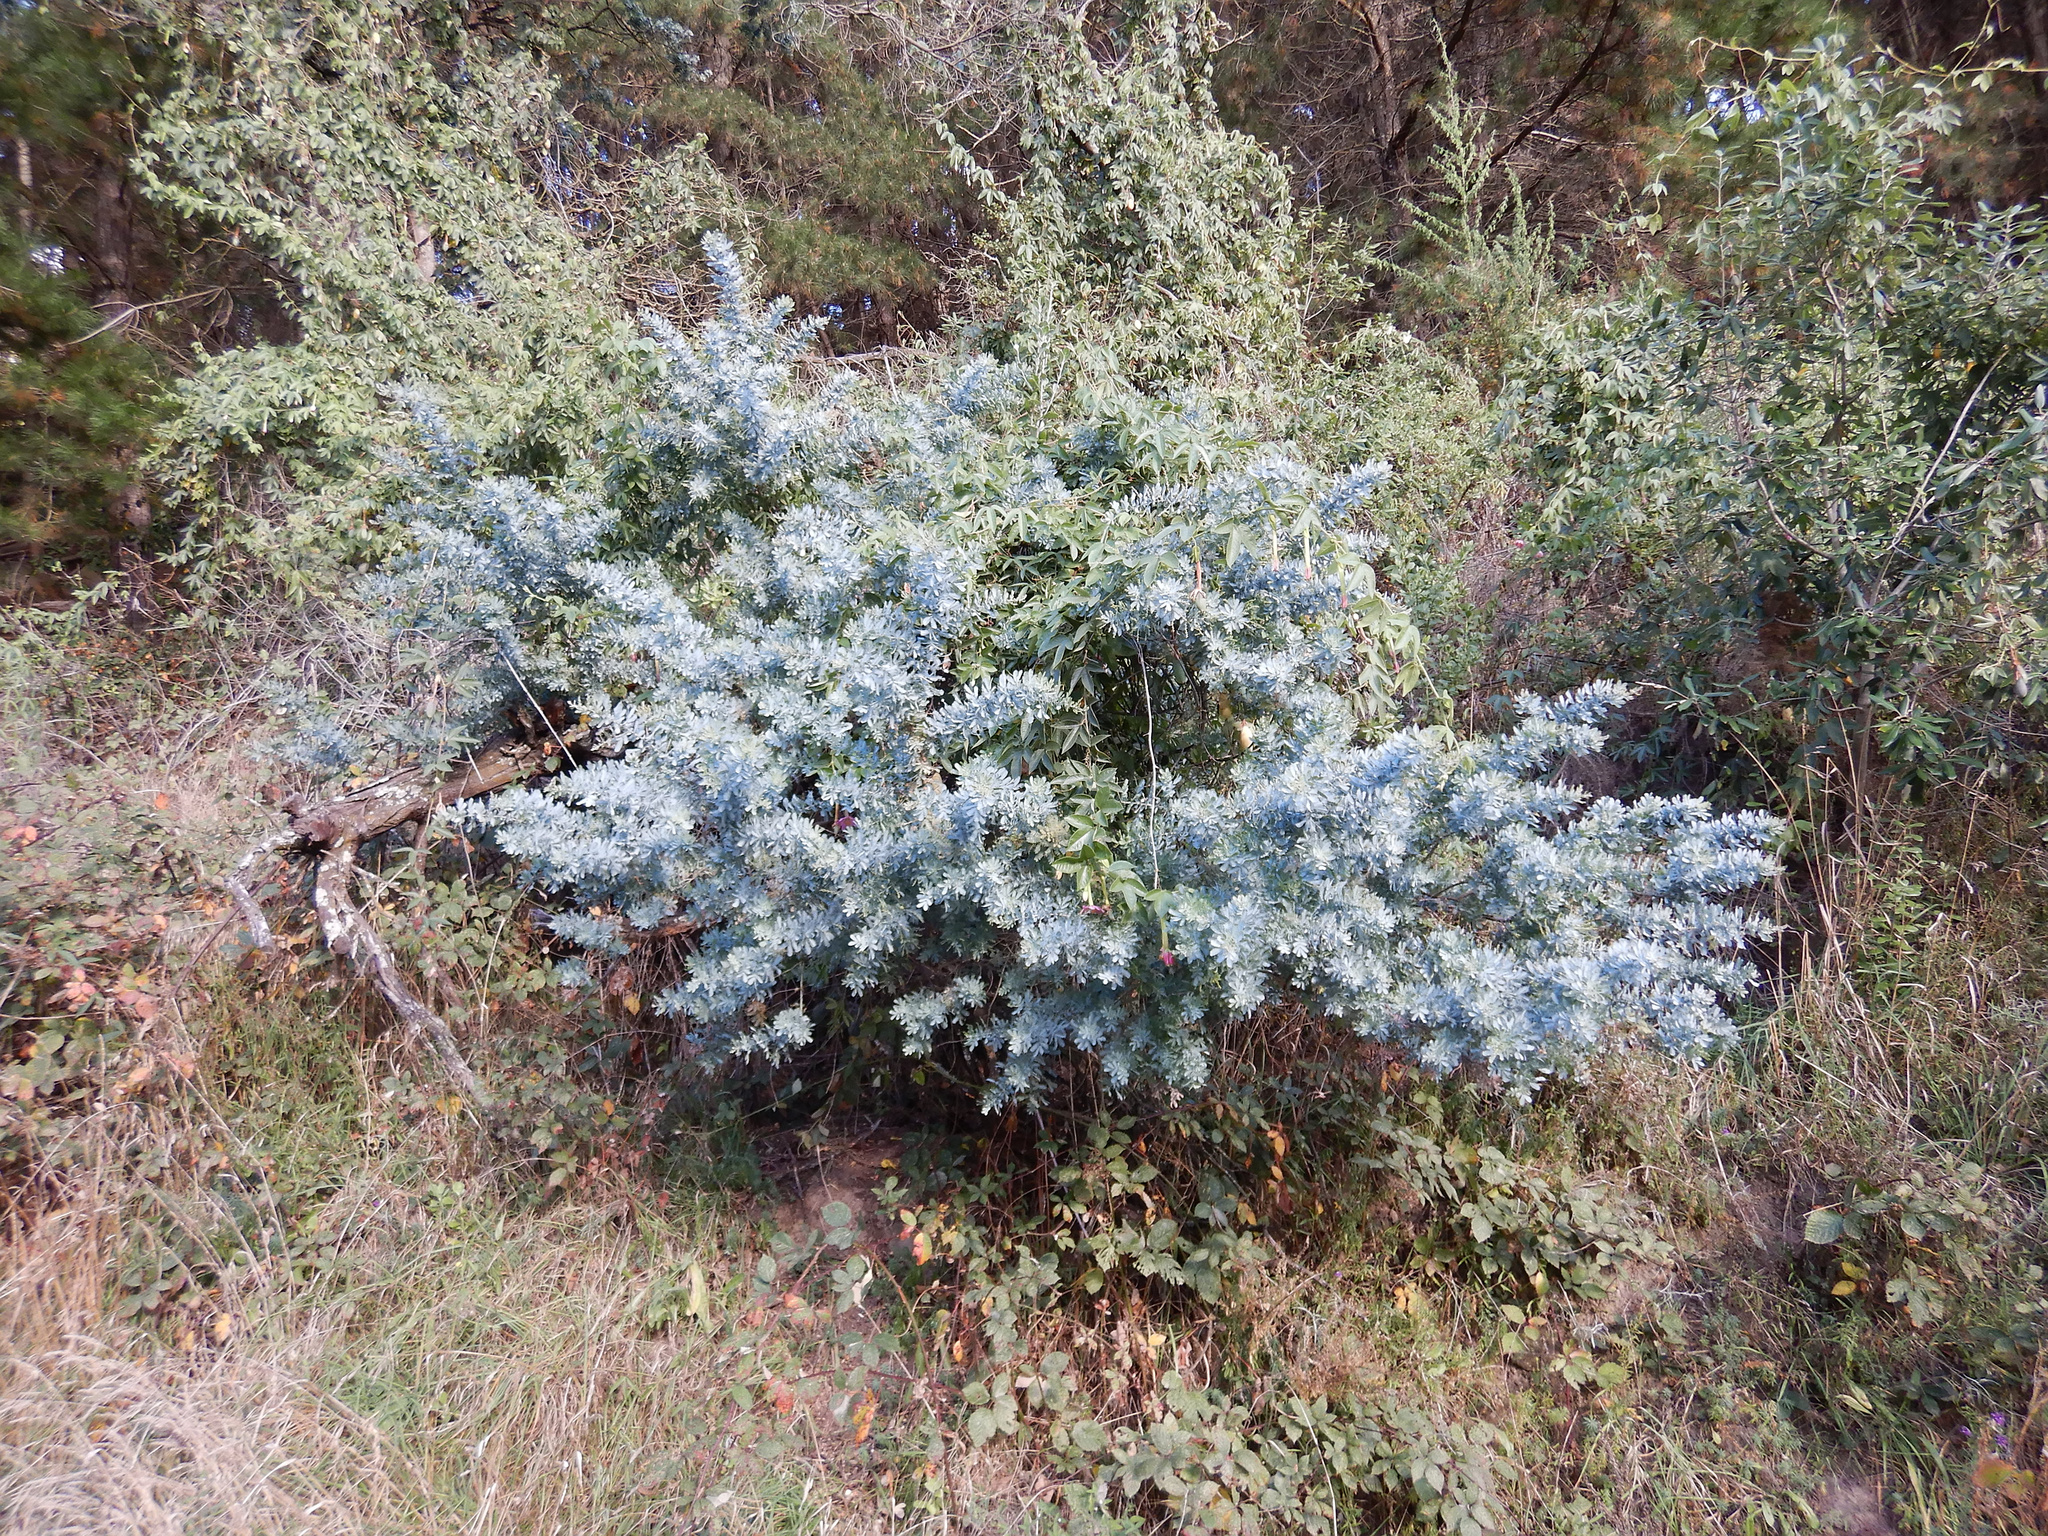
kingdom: Plantae
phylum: Tracheophyta
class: Magnoliopsida
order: Fabales
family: Fabaceae
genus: Acacia
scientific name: Acacia baileyana
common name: Cootamundra wattle
